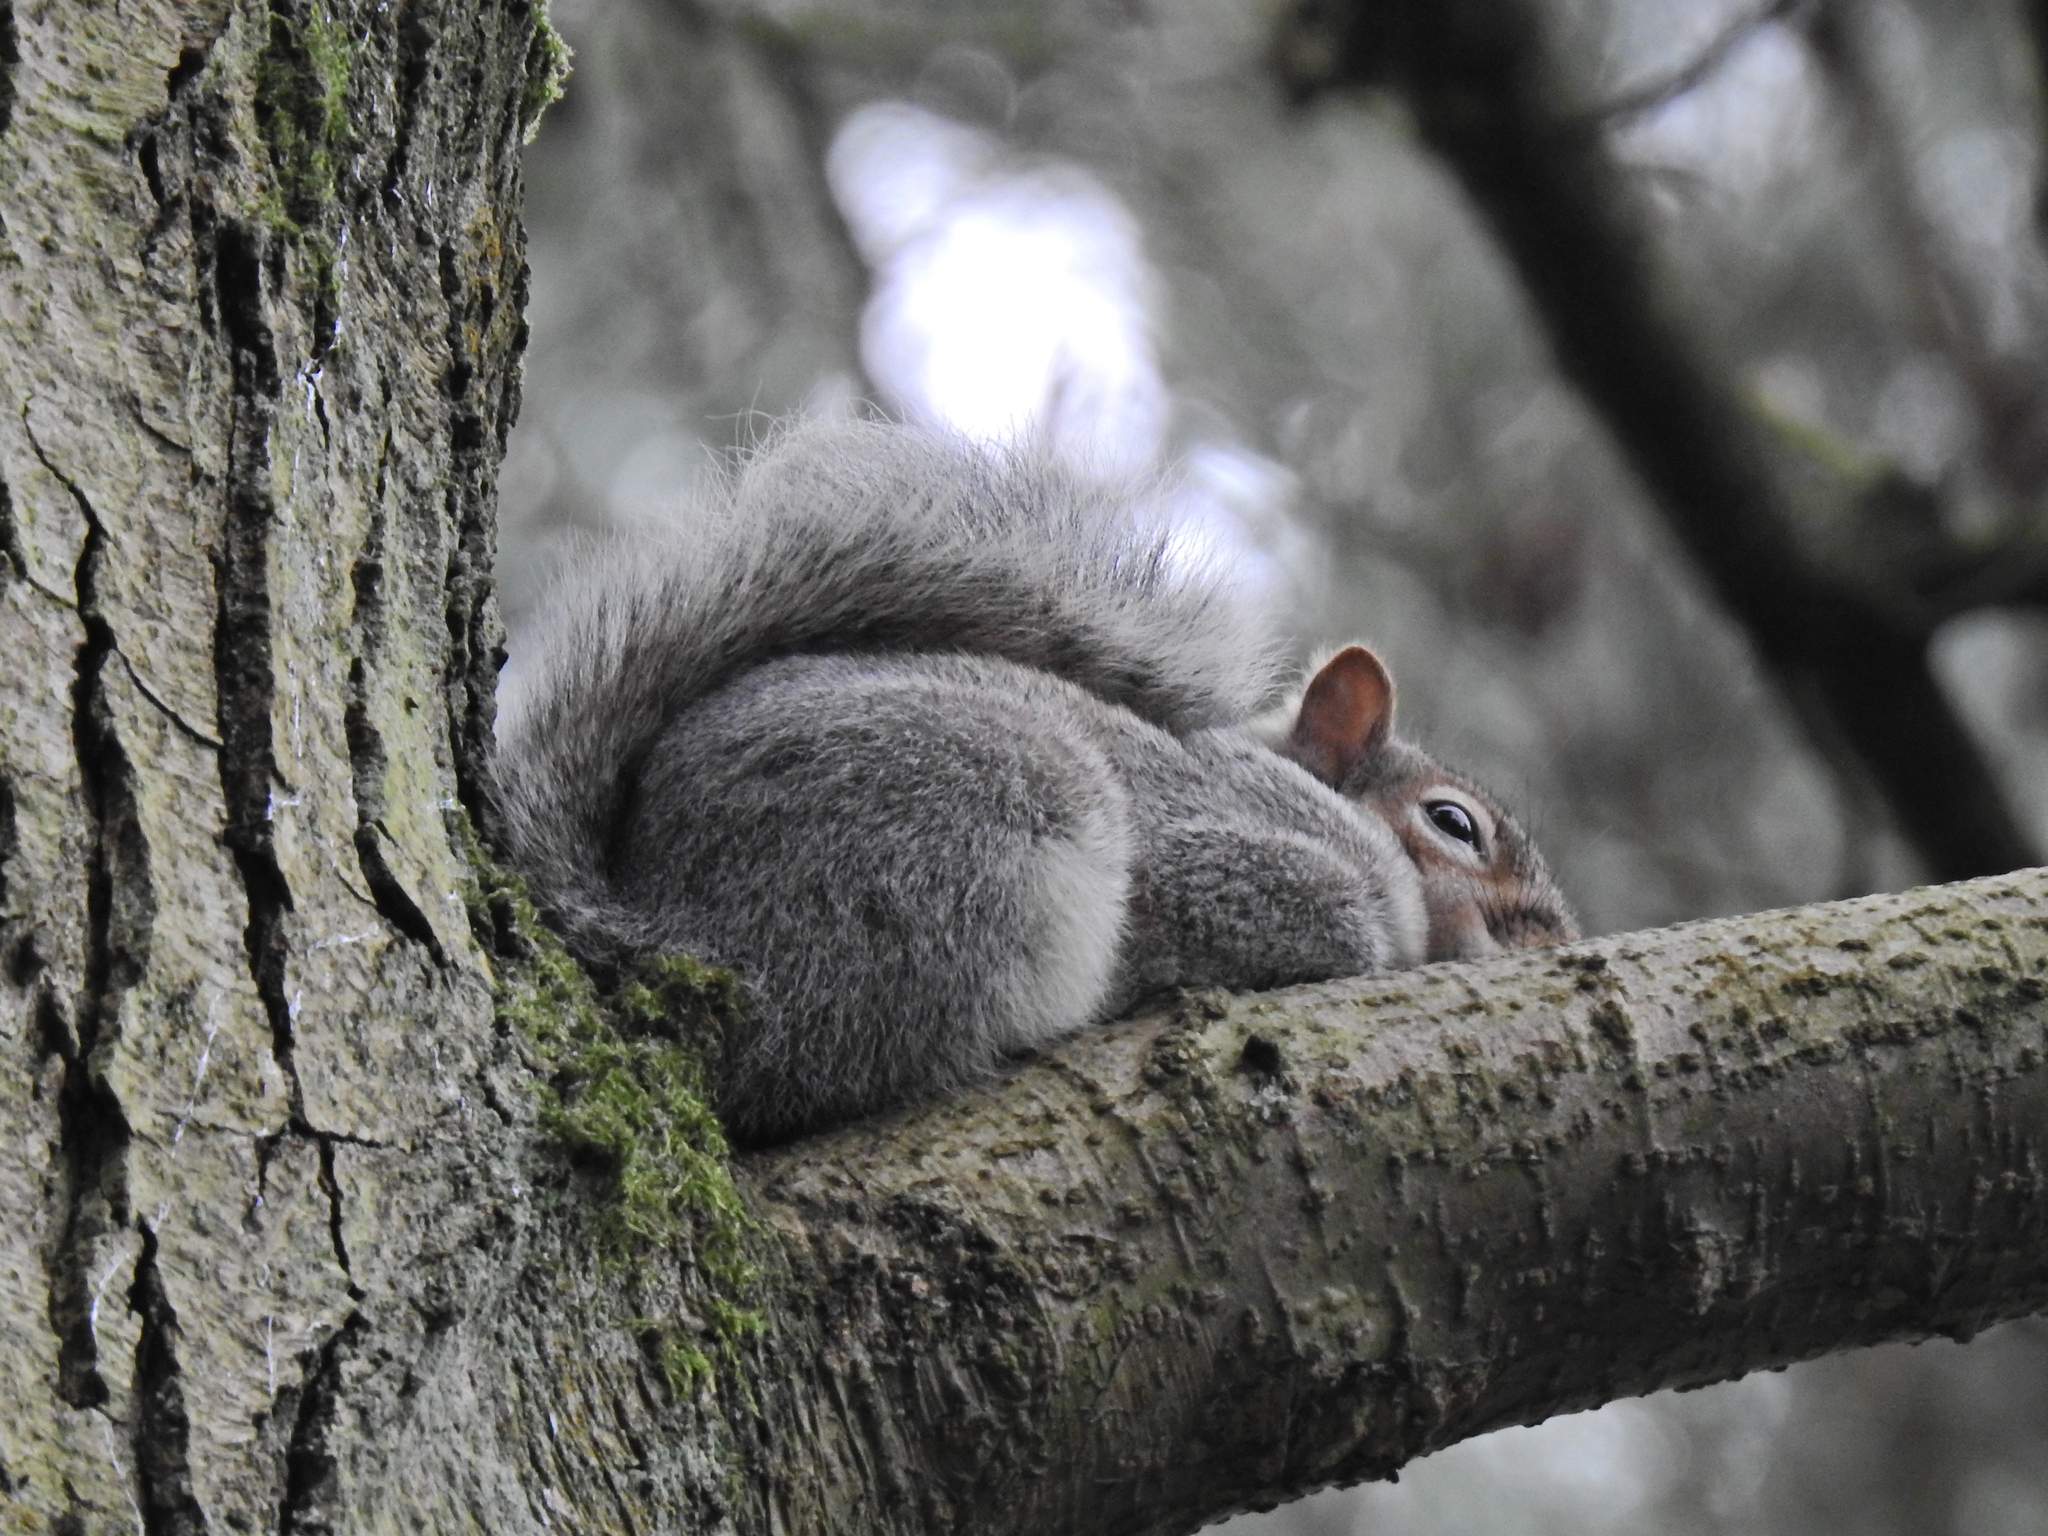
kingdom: Animalia
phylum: Chordata
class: Mammalia
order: Rodentia
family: Sciuridae
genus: Sciurus
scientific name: Sciurus carolinensis
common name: Eastern gray squirrel
